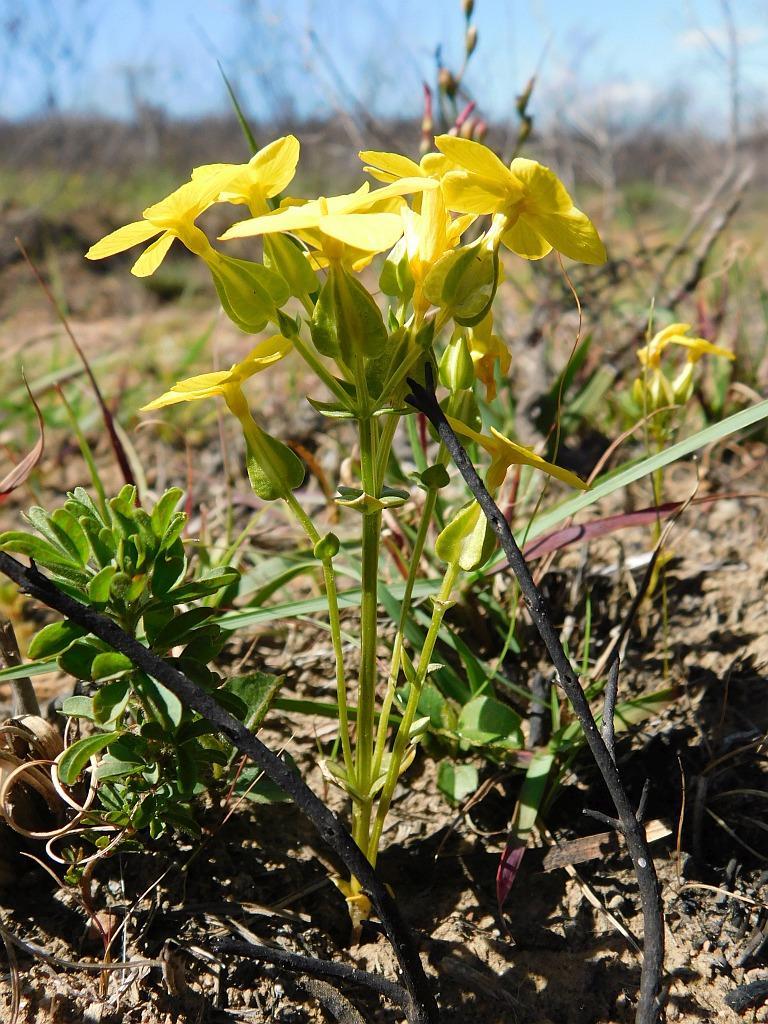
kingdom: Plantae
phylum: Tracheophyta
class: Magnoliopsida
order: Gentianales
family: Gentianaceae
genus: Sebaea
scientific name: Sebaea exacoides
